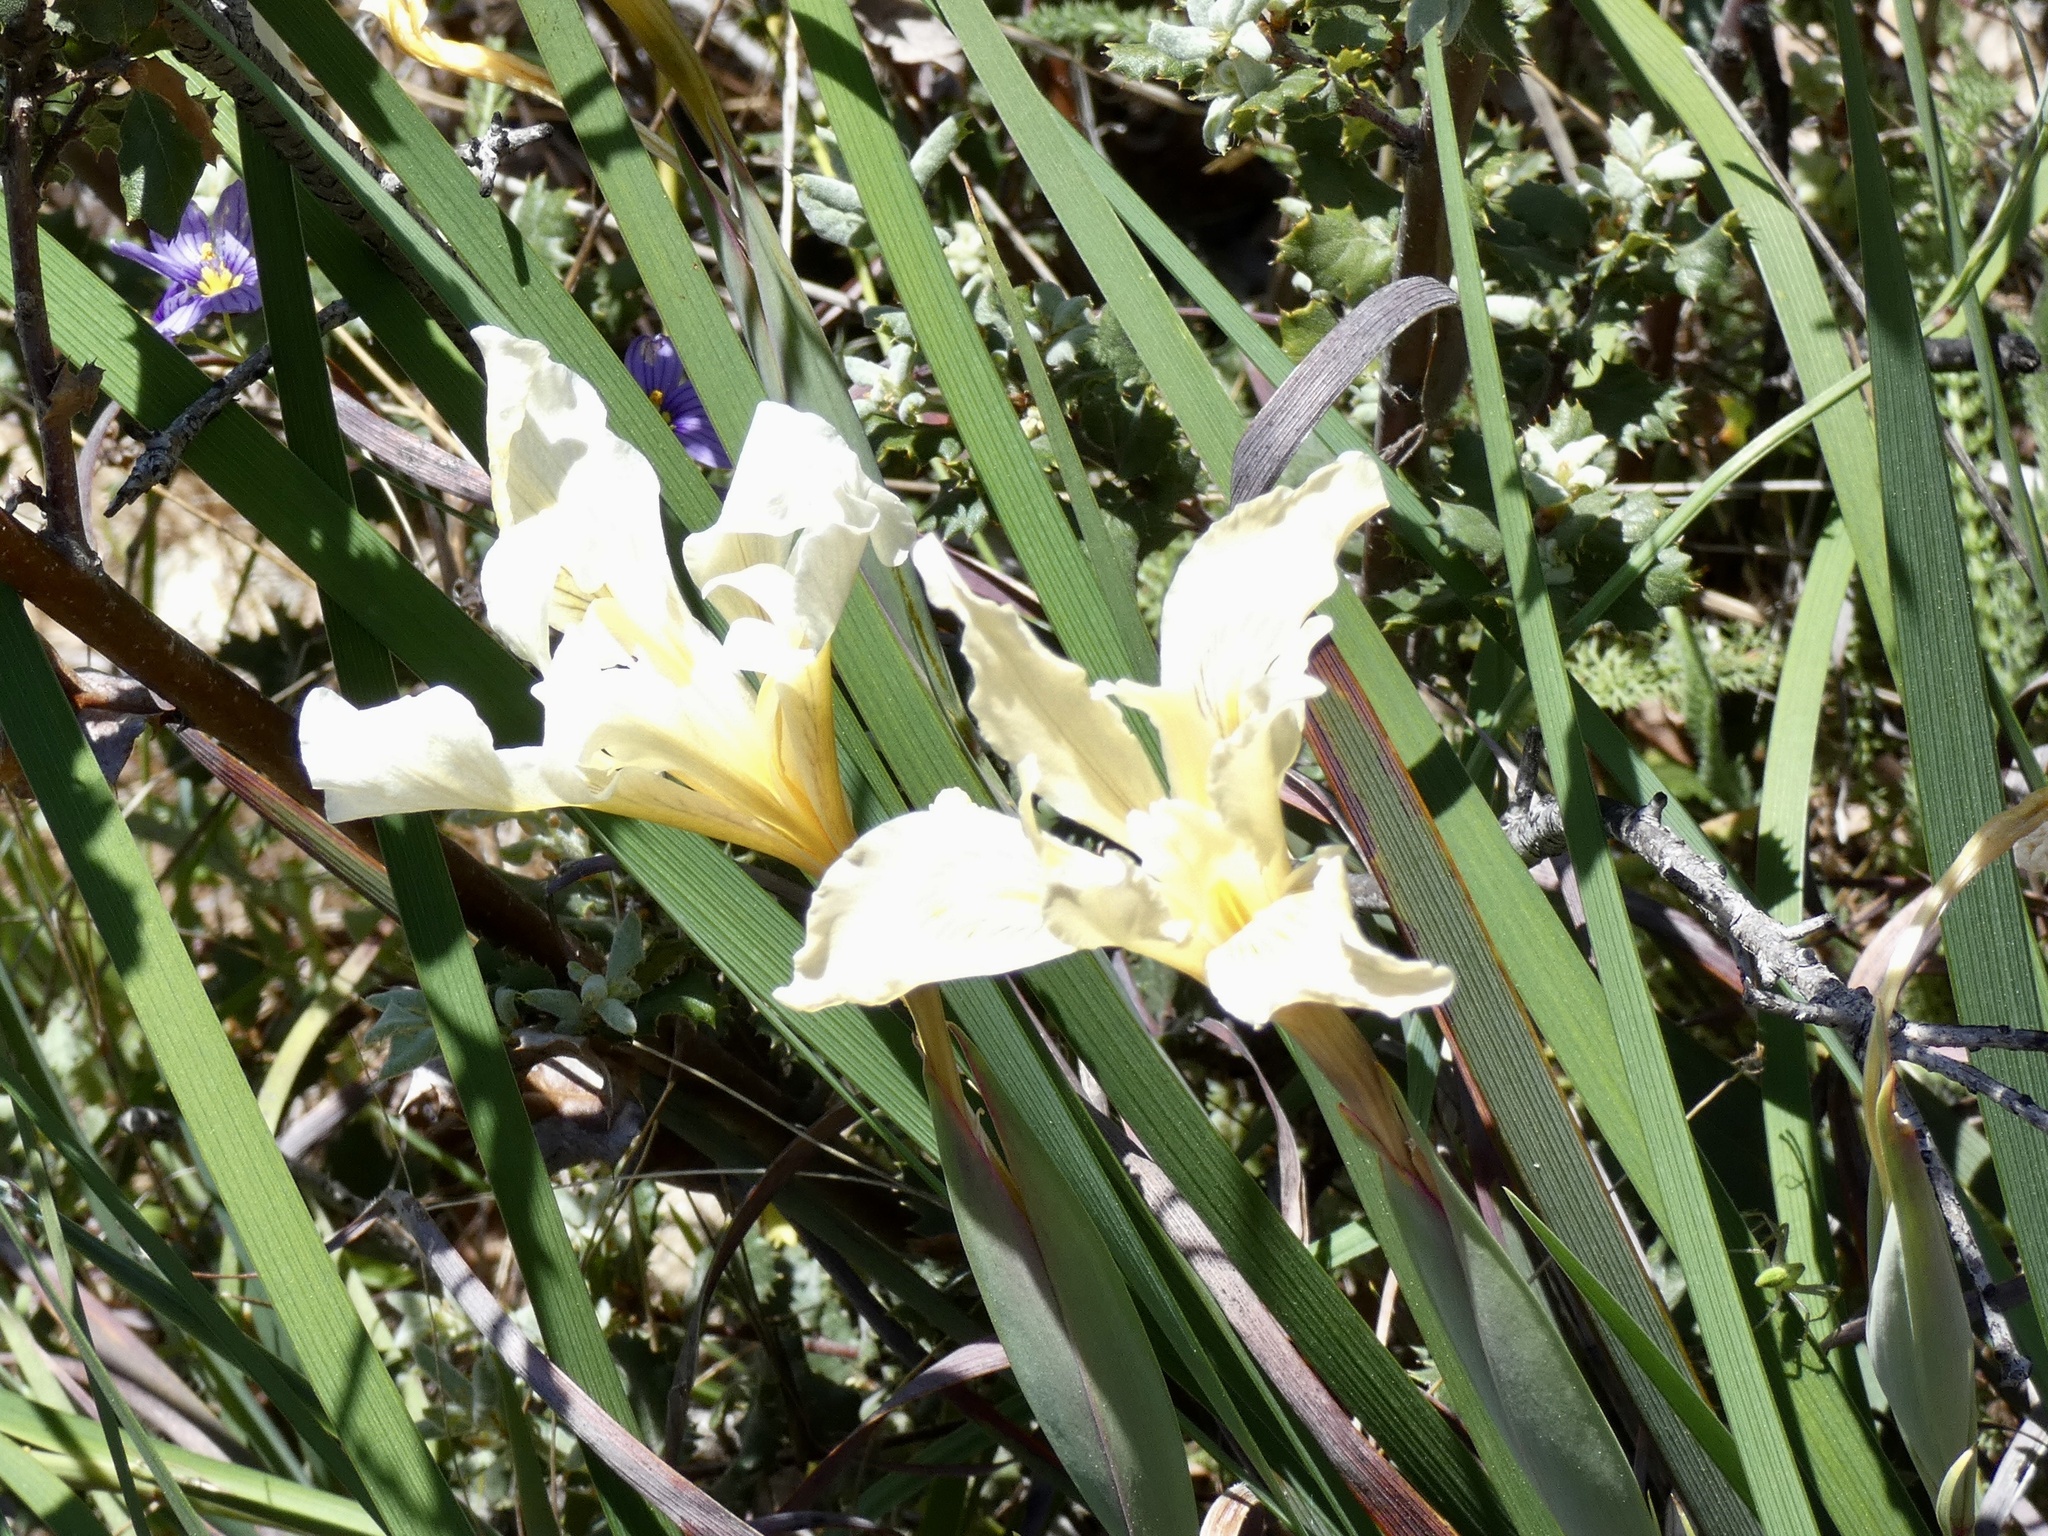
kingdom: Plantae
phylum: Tracheophyta
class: Liliopsida
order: Asparagales
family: Iridaceae
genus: Iris
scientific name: Iris fernaldii
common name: Fernald's iris
